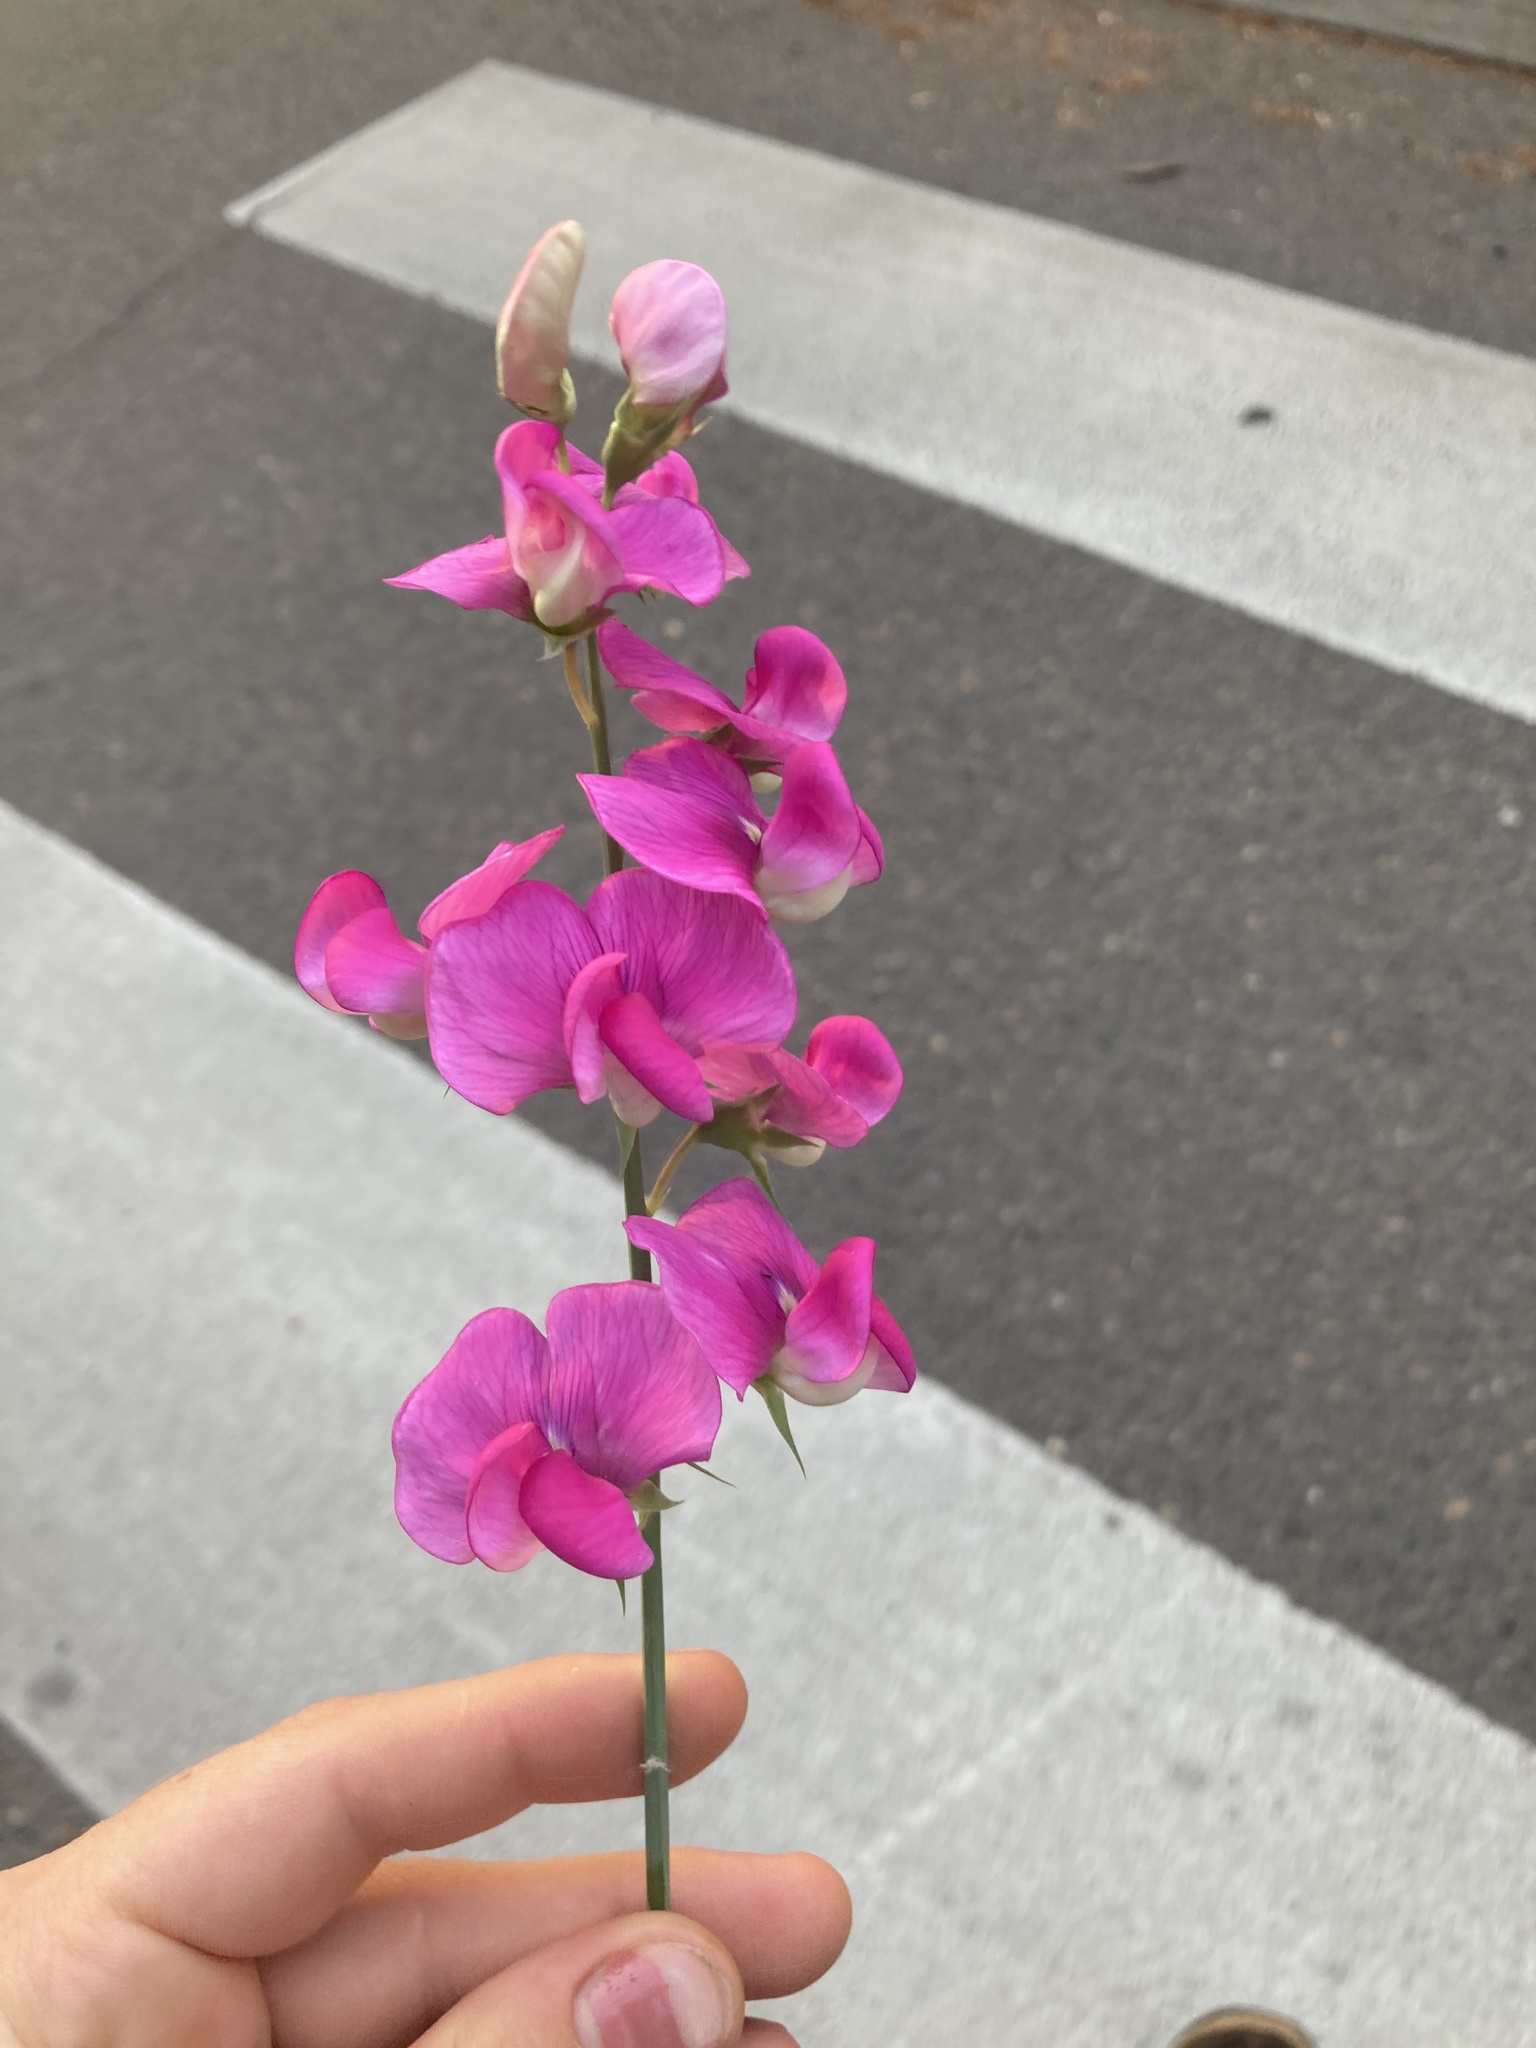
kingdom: Plantae
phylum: Tracheophyta
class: Magnoliopsida
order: Fabales
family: Fabaceae
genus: Lathyrus
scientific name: Lathyrus latifolius
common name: Perennial pea
